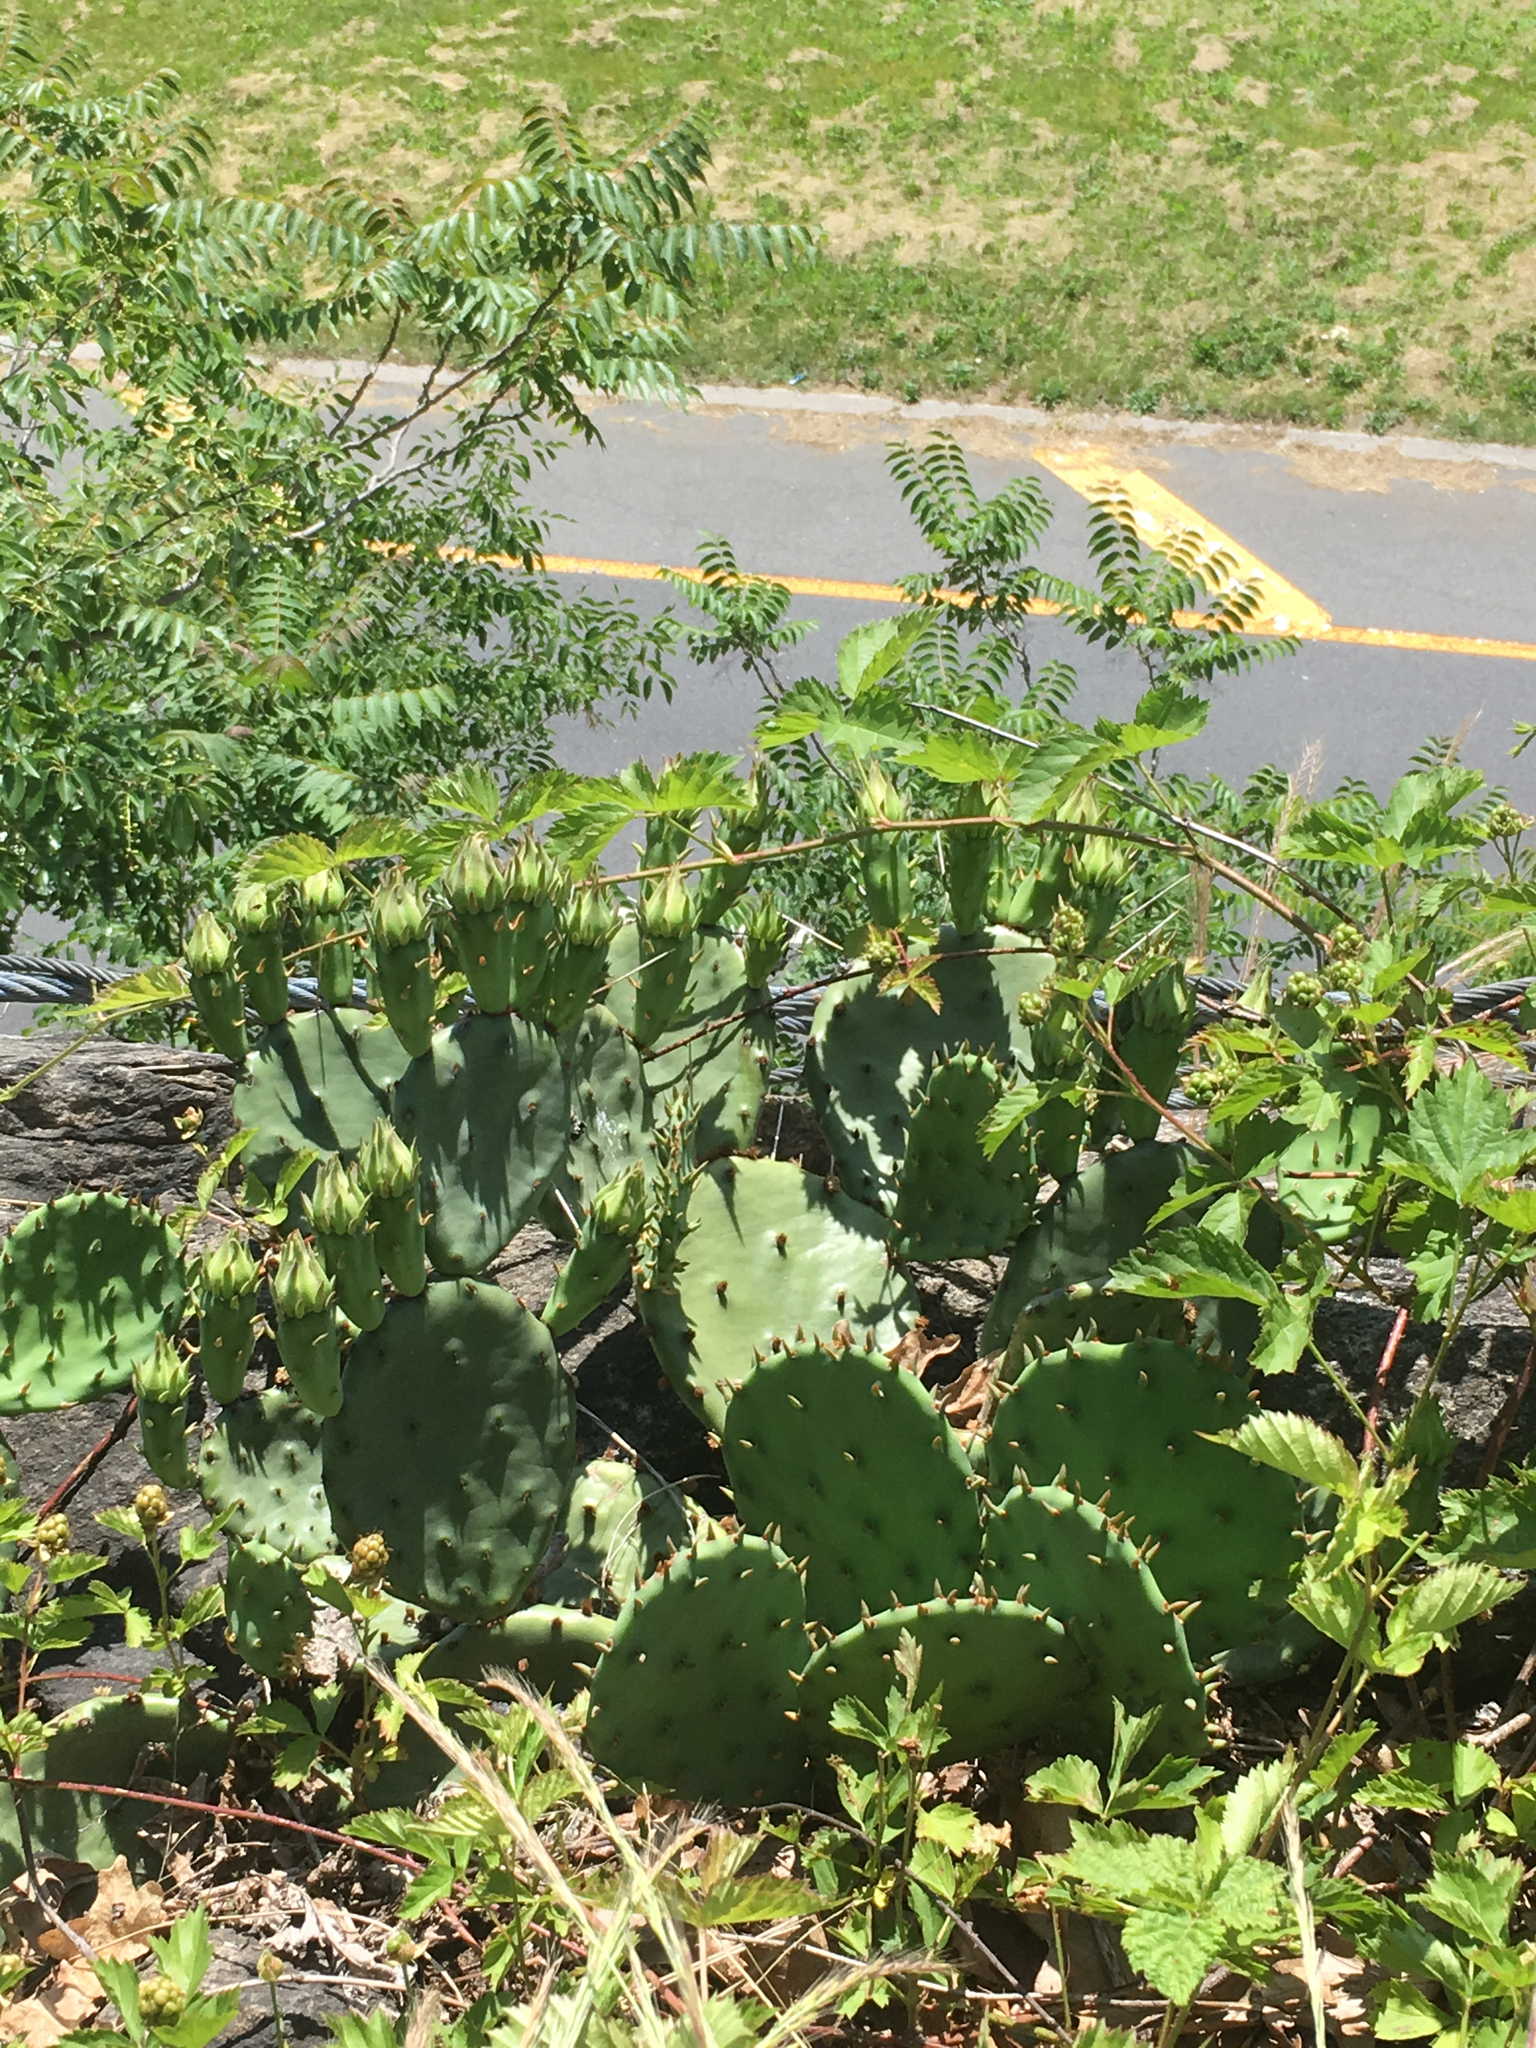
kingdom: Plantae
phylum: Tracheophyta
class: Magnoliopsida
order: Caryophyllales
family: Cactaceae
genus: Opuntia
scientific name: Opuntia humifusa
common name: Eastern prickly-pear
